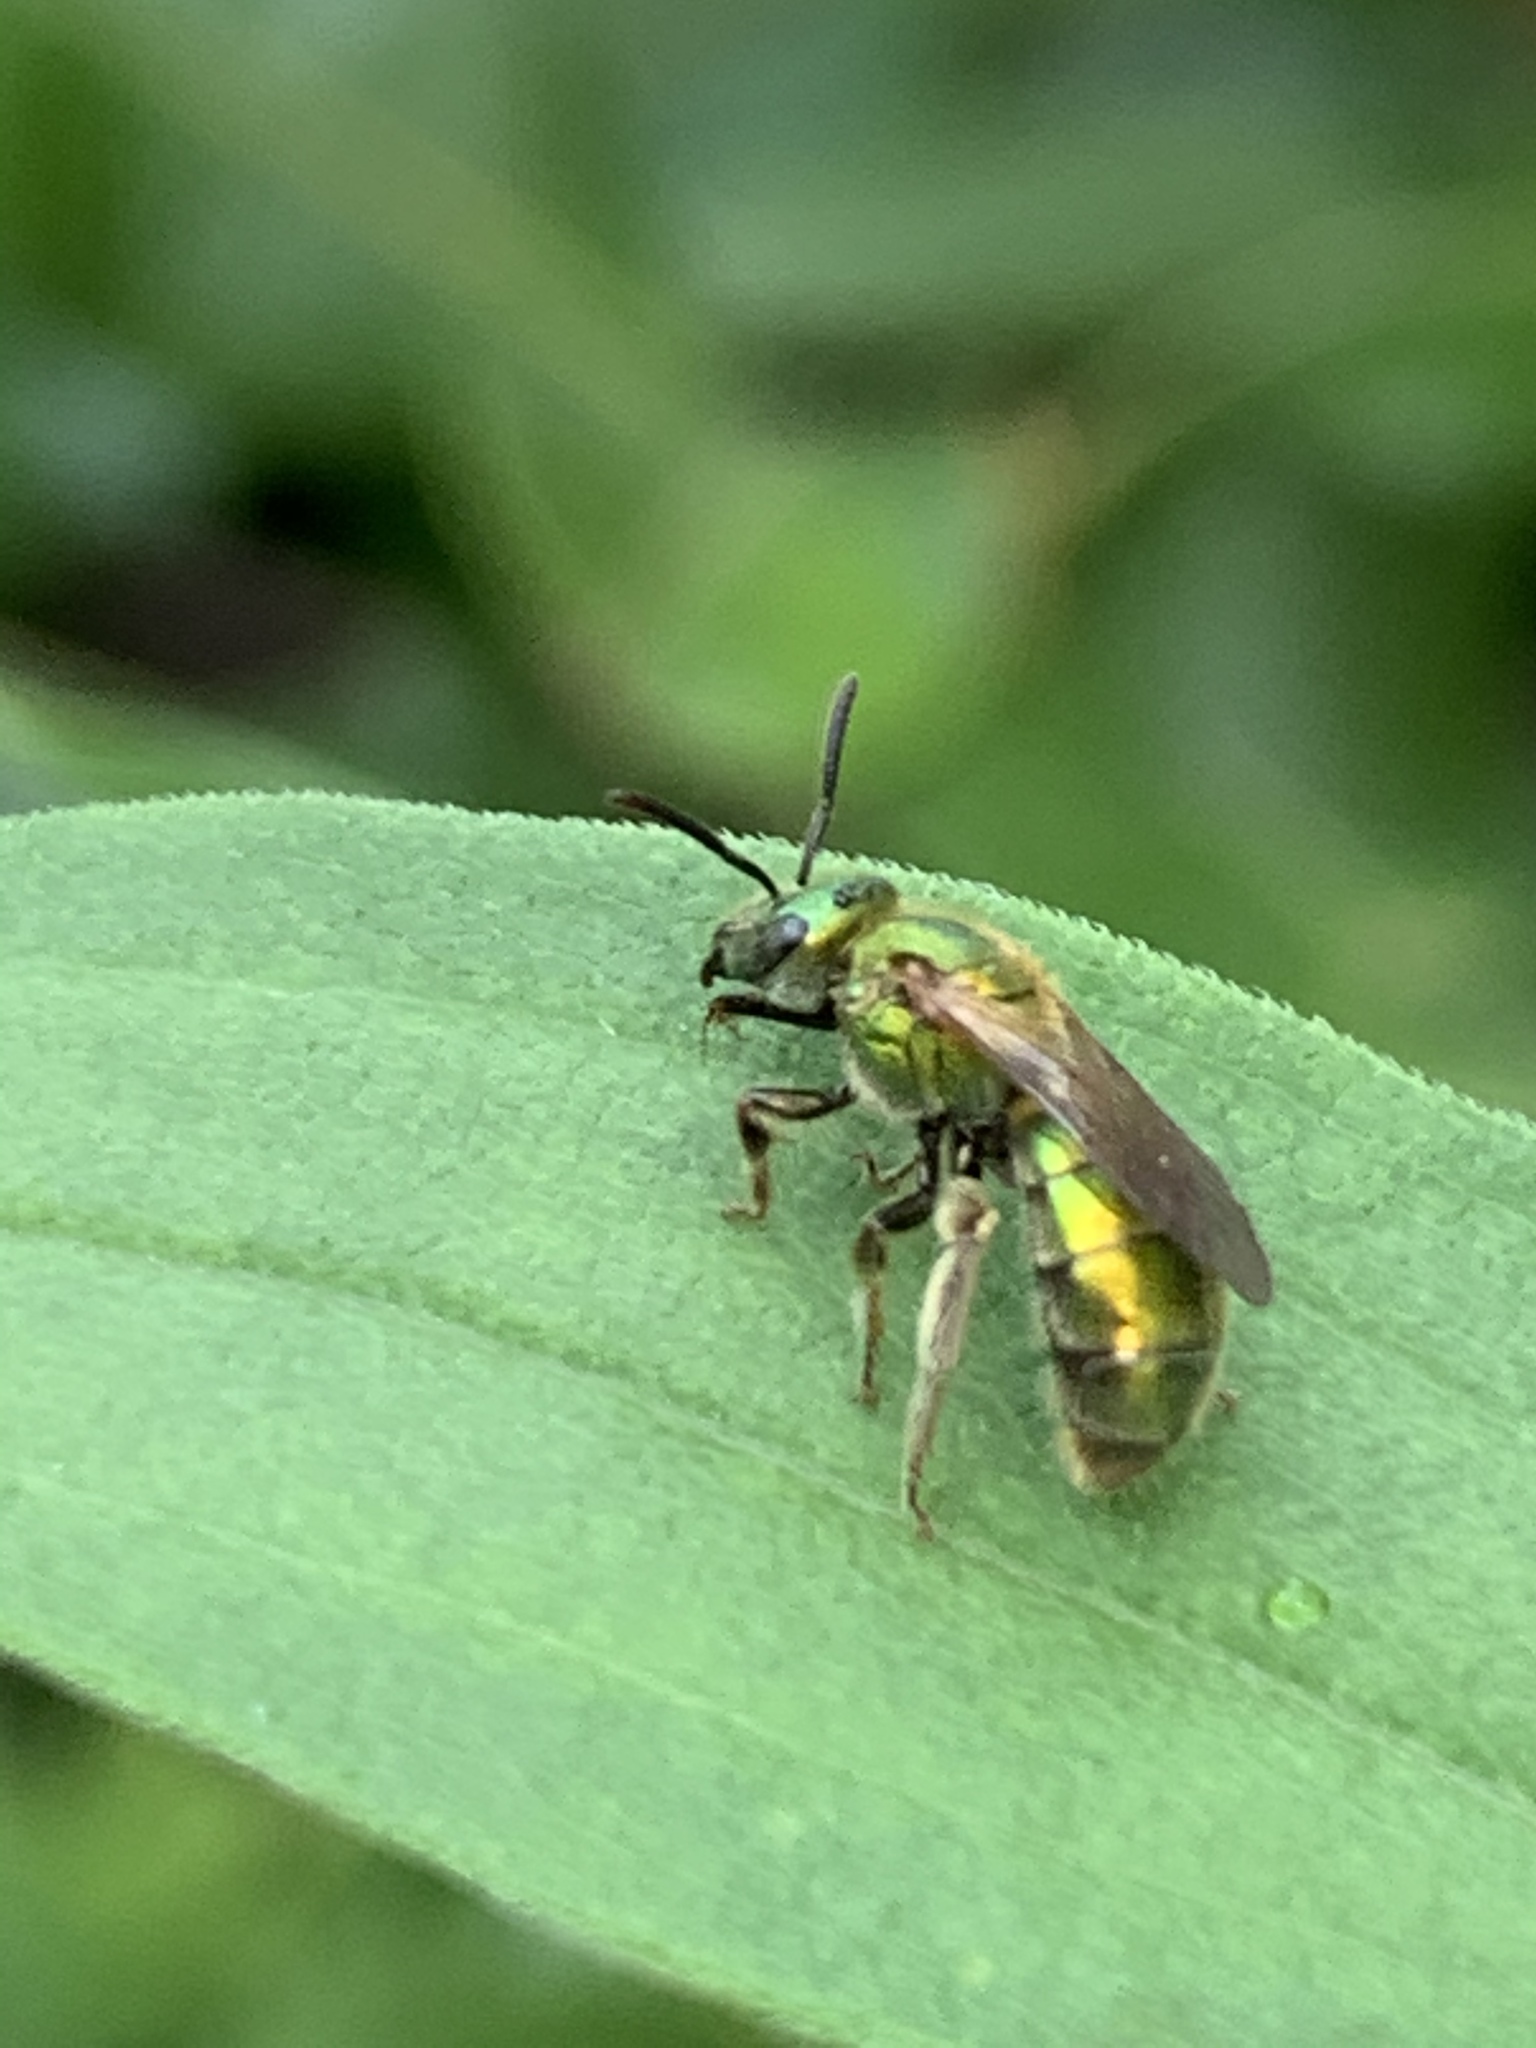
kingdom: Animalia
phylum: Arthropoda
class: Insecta
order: Hymenoptera
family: Halictidae
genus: Augochlorella
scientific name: Augochlorella aurata
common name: Golden sweat bee
